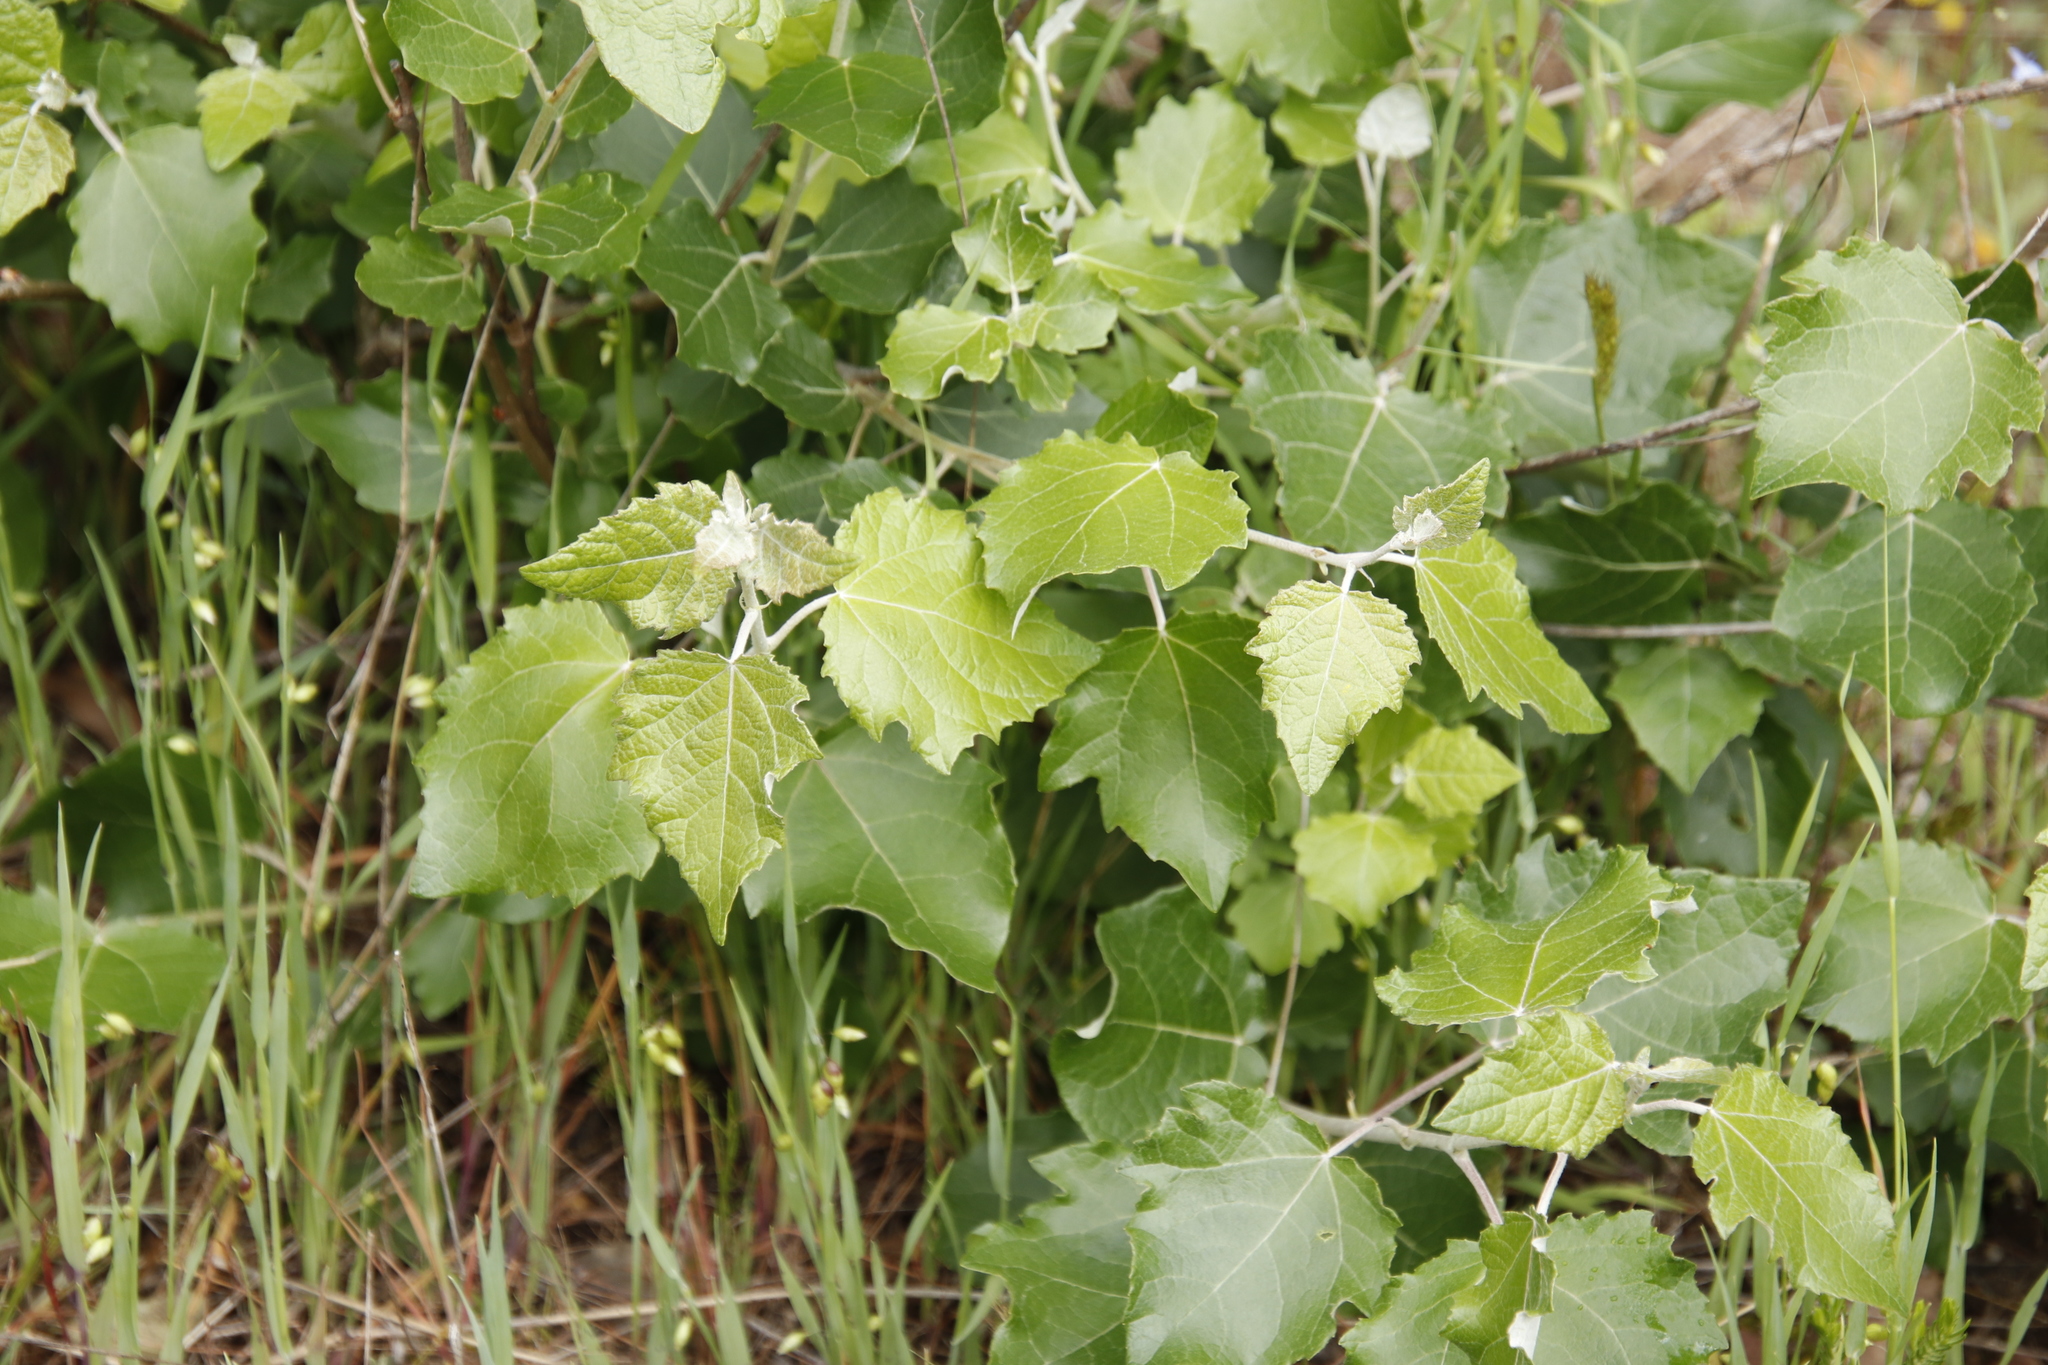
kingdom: Plantae
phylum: Tracheophyta
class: Magnoliopsida
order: Malpighiales
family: Salicaceae
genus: Populus
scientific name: Populus canescens
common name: Gray poplar
